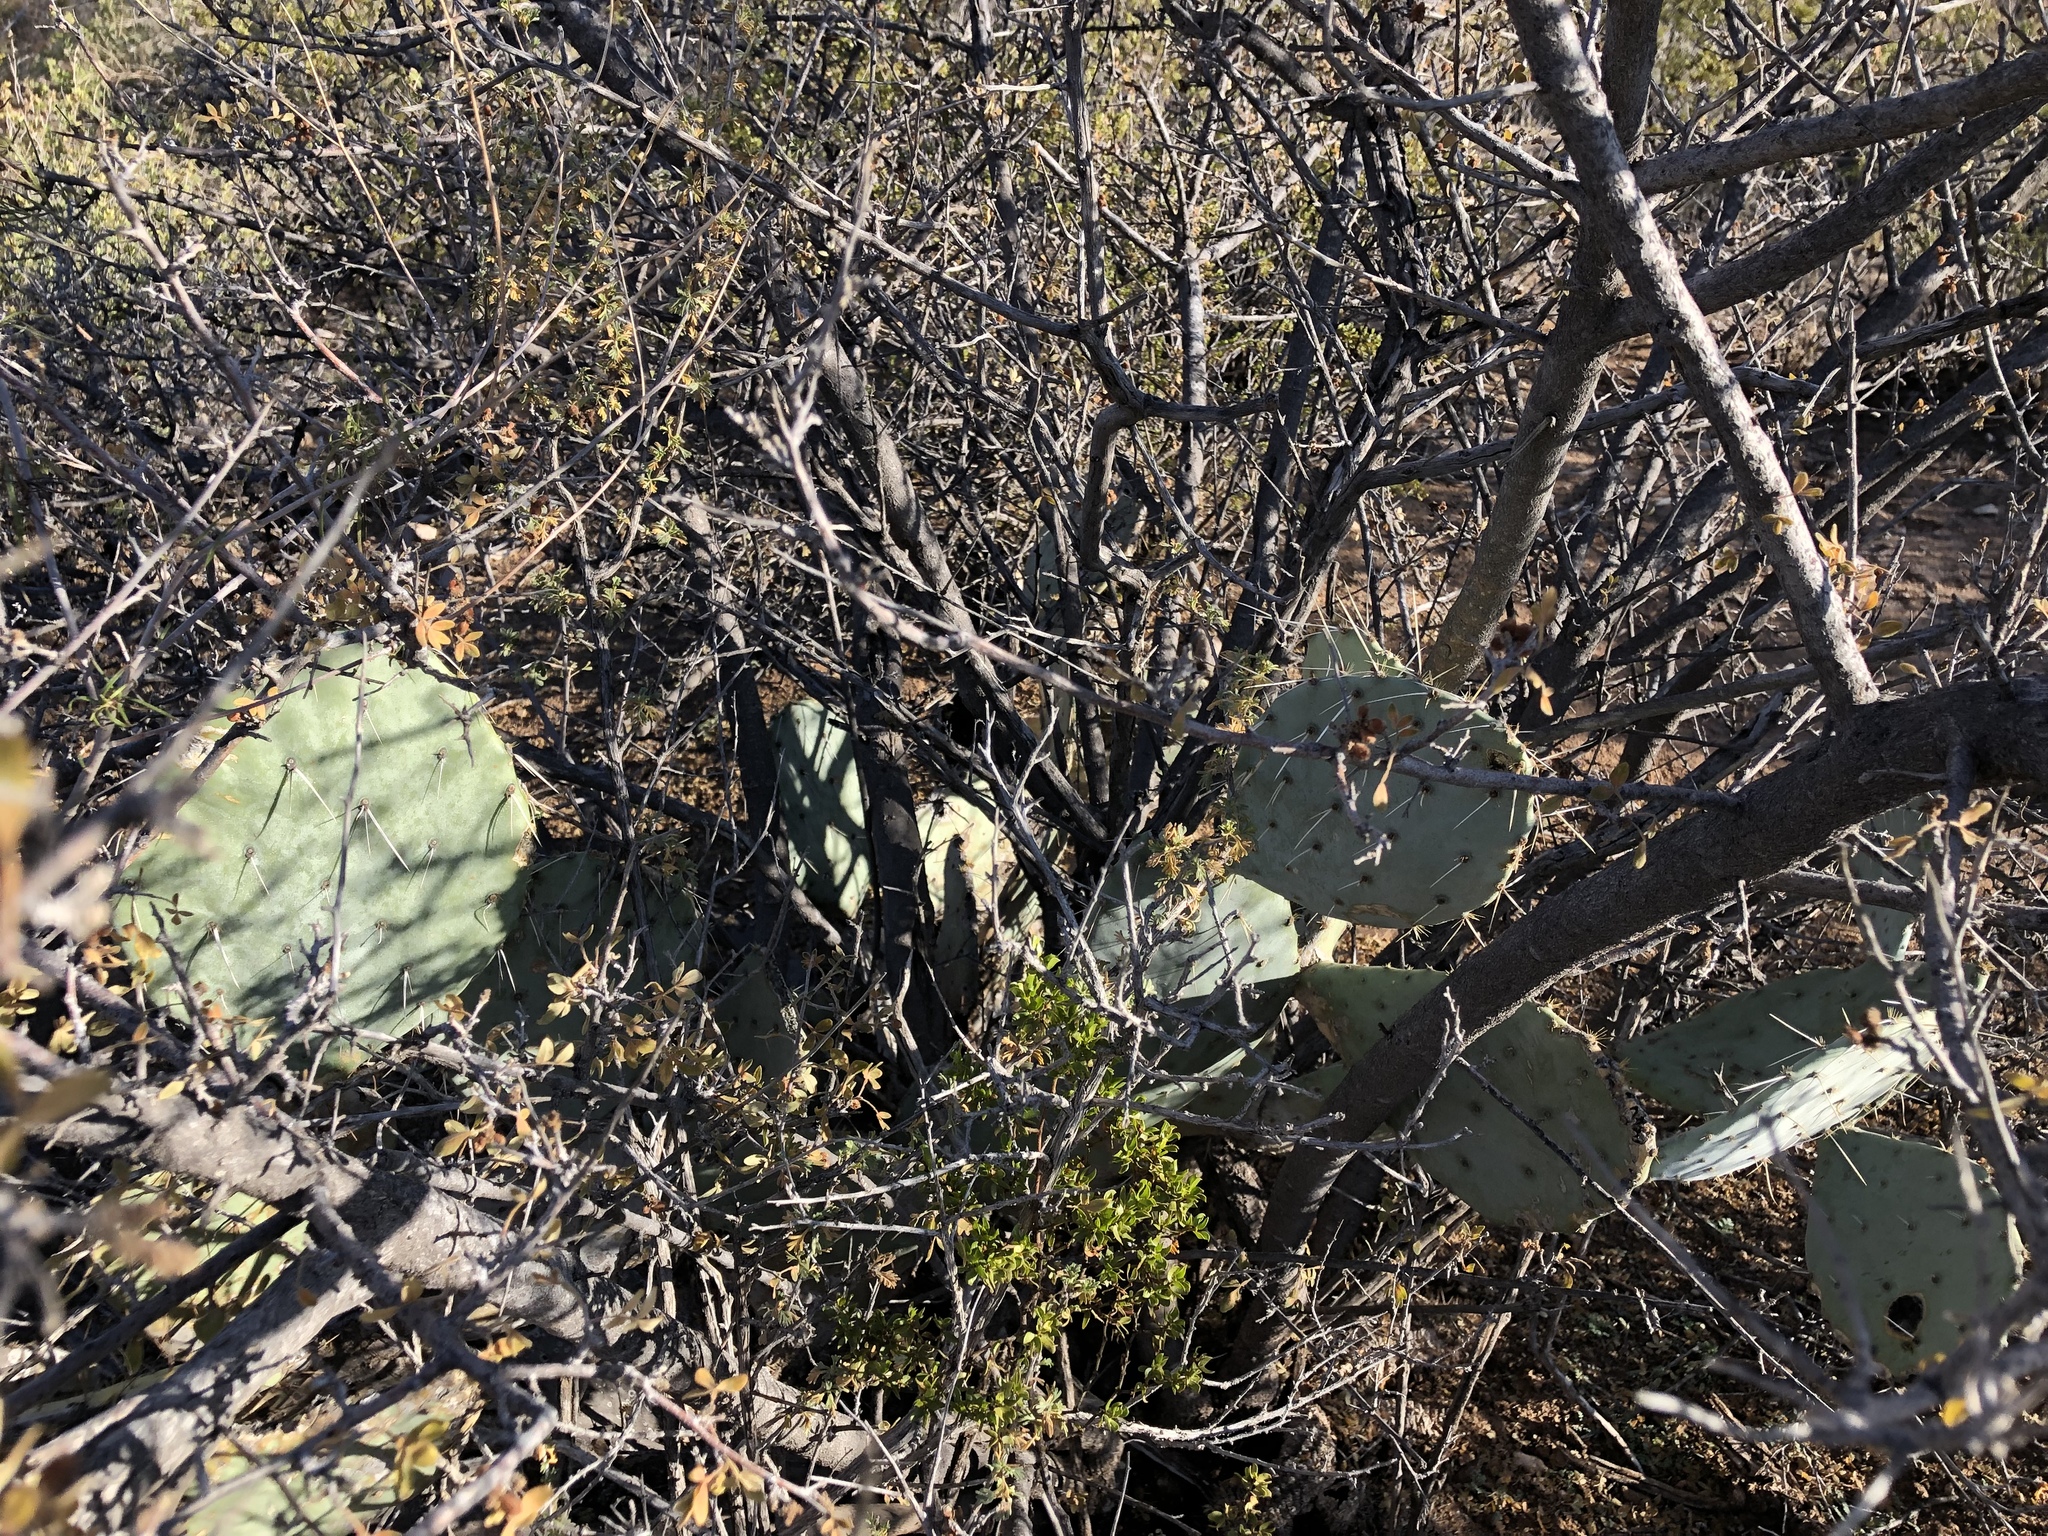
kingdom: Plantae
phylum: Tracheophyta
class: Magnoliopsida
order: Caryophyllales
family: Cactaceae
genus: Opuntia
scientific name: Opuntia engelmannii
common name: Cactus-apple
